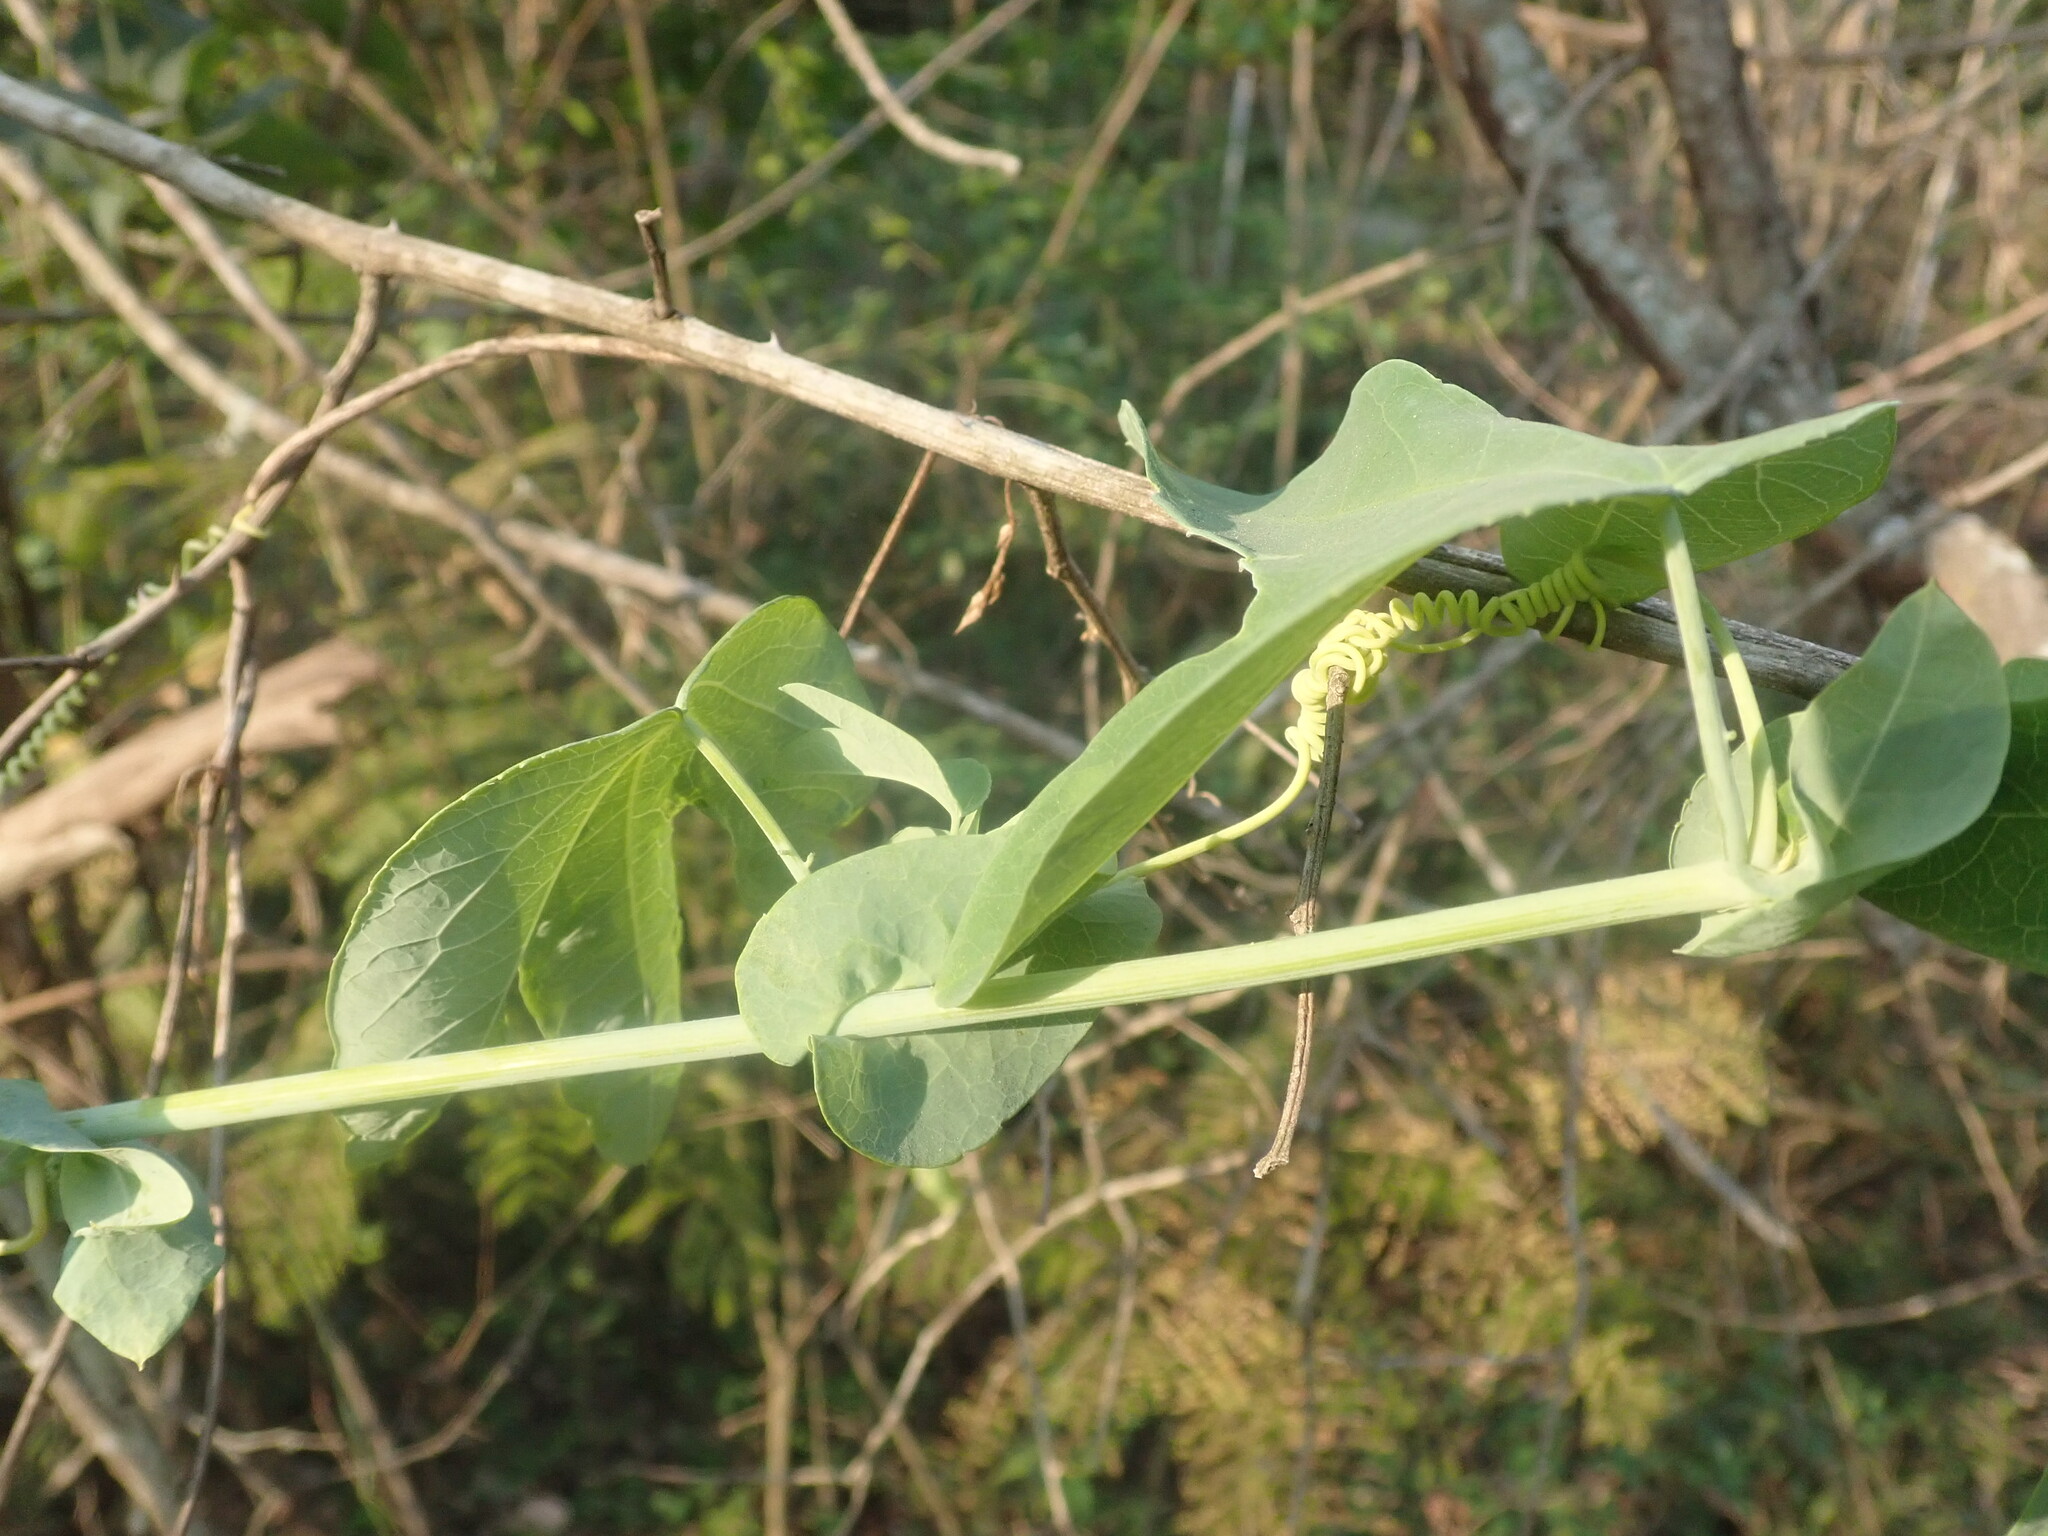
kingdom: Plantae
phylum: Tracheophyta
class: Magnoliopsida
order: Malpighiales
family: Passifloraceae
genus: Passiflora
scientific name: Passiflora subpeltata
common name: White passionflower
